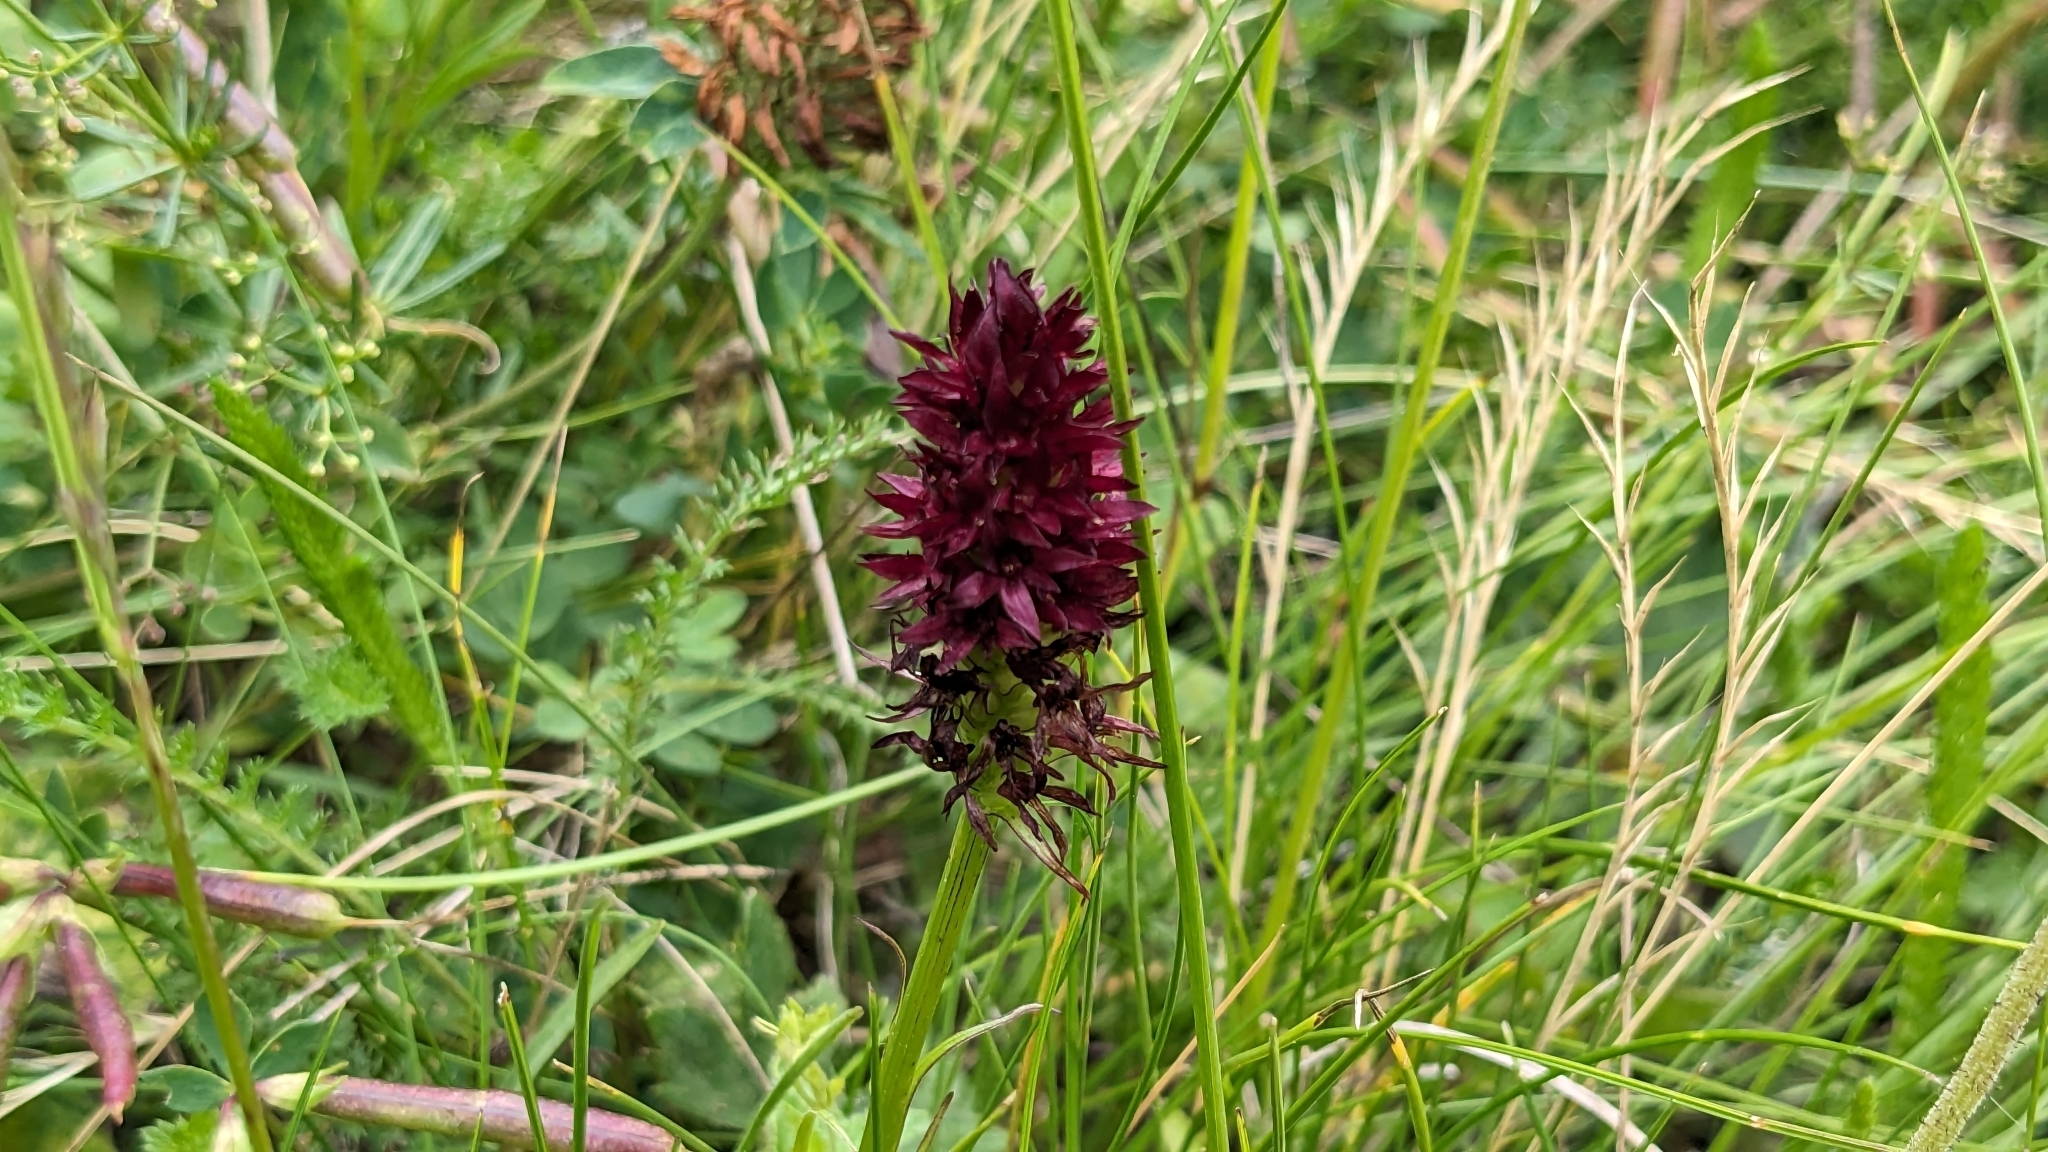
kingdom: Plantae
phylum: Tracheophyta
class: Liliopsida
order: Asparagales
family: Orchidaceae
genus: Gymnadenia
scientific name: Gymnadenia rhellicani
